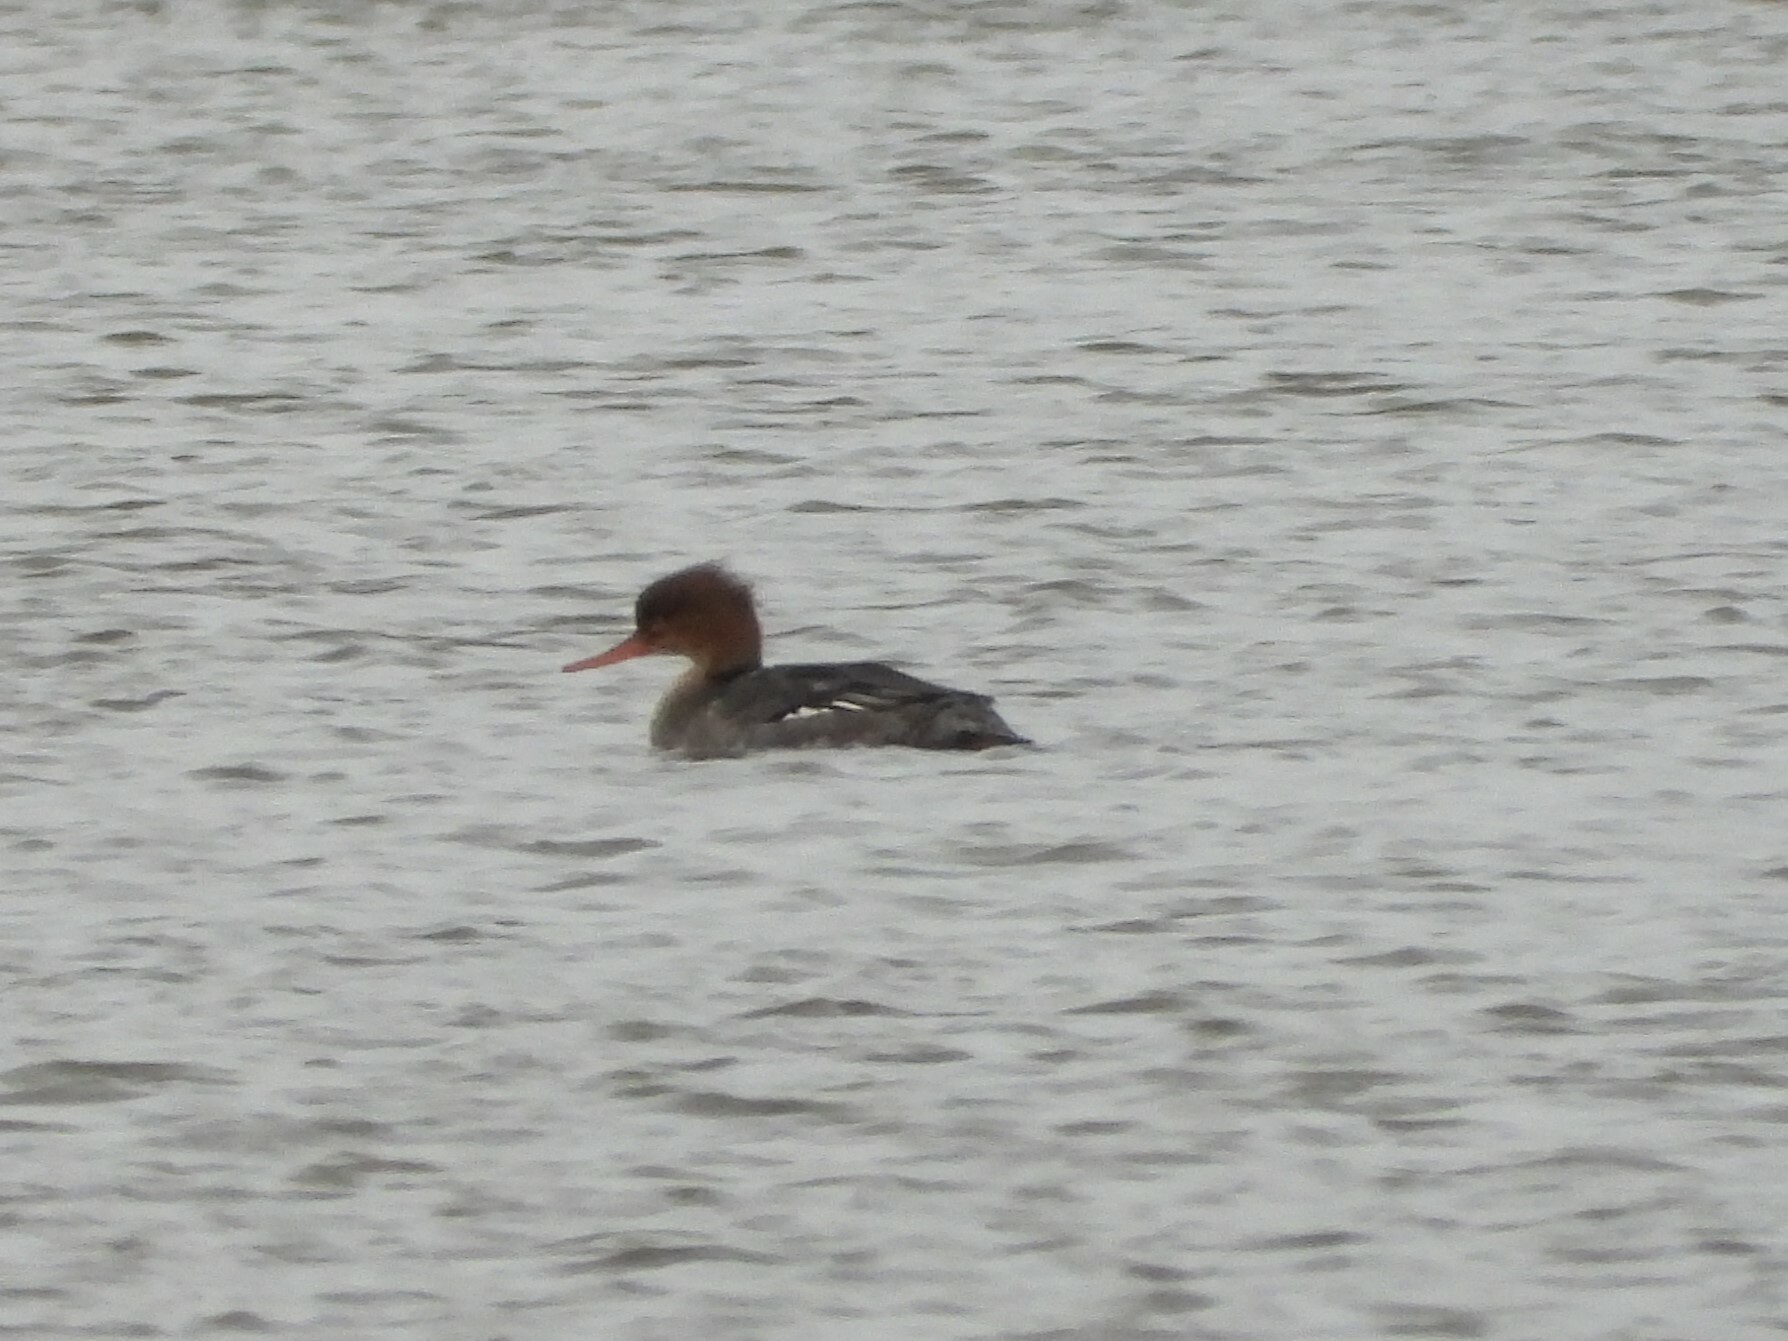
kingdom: Animalia
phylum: Chordata
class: Aves
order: Anseriformes
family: Anatidae
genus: Mergus
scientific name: Mergus serrator
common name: Red-breasted merganser
